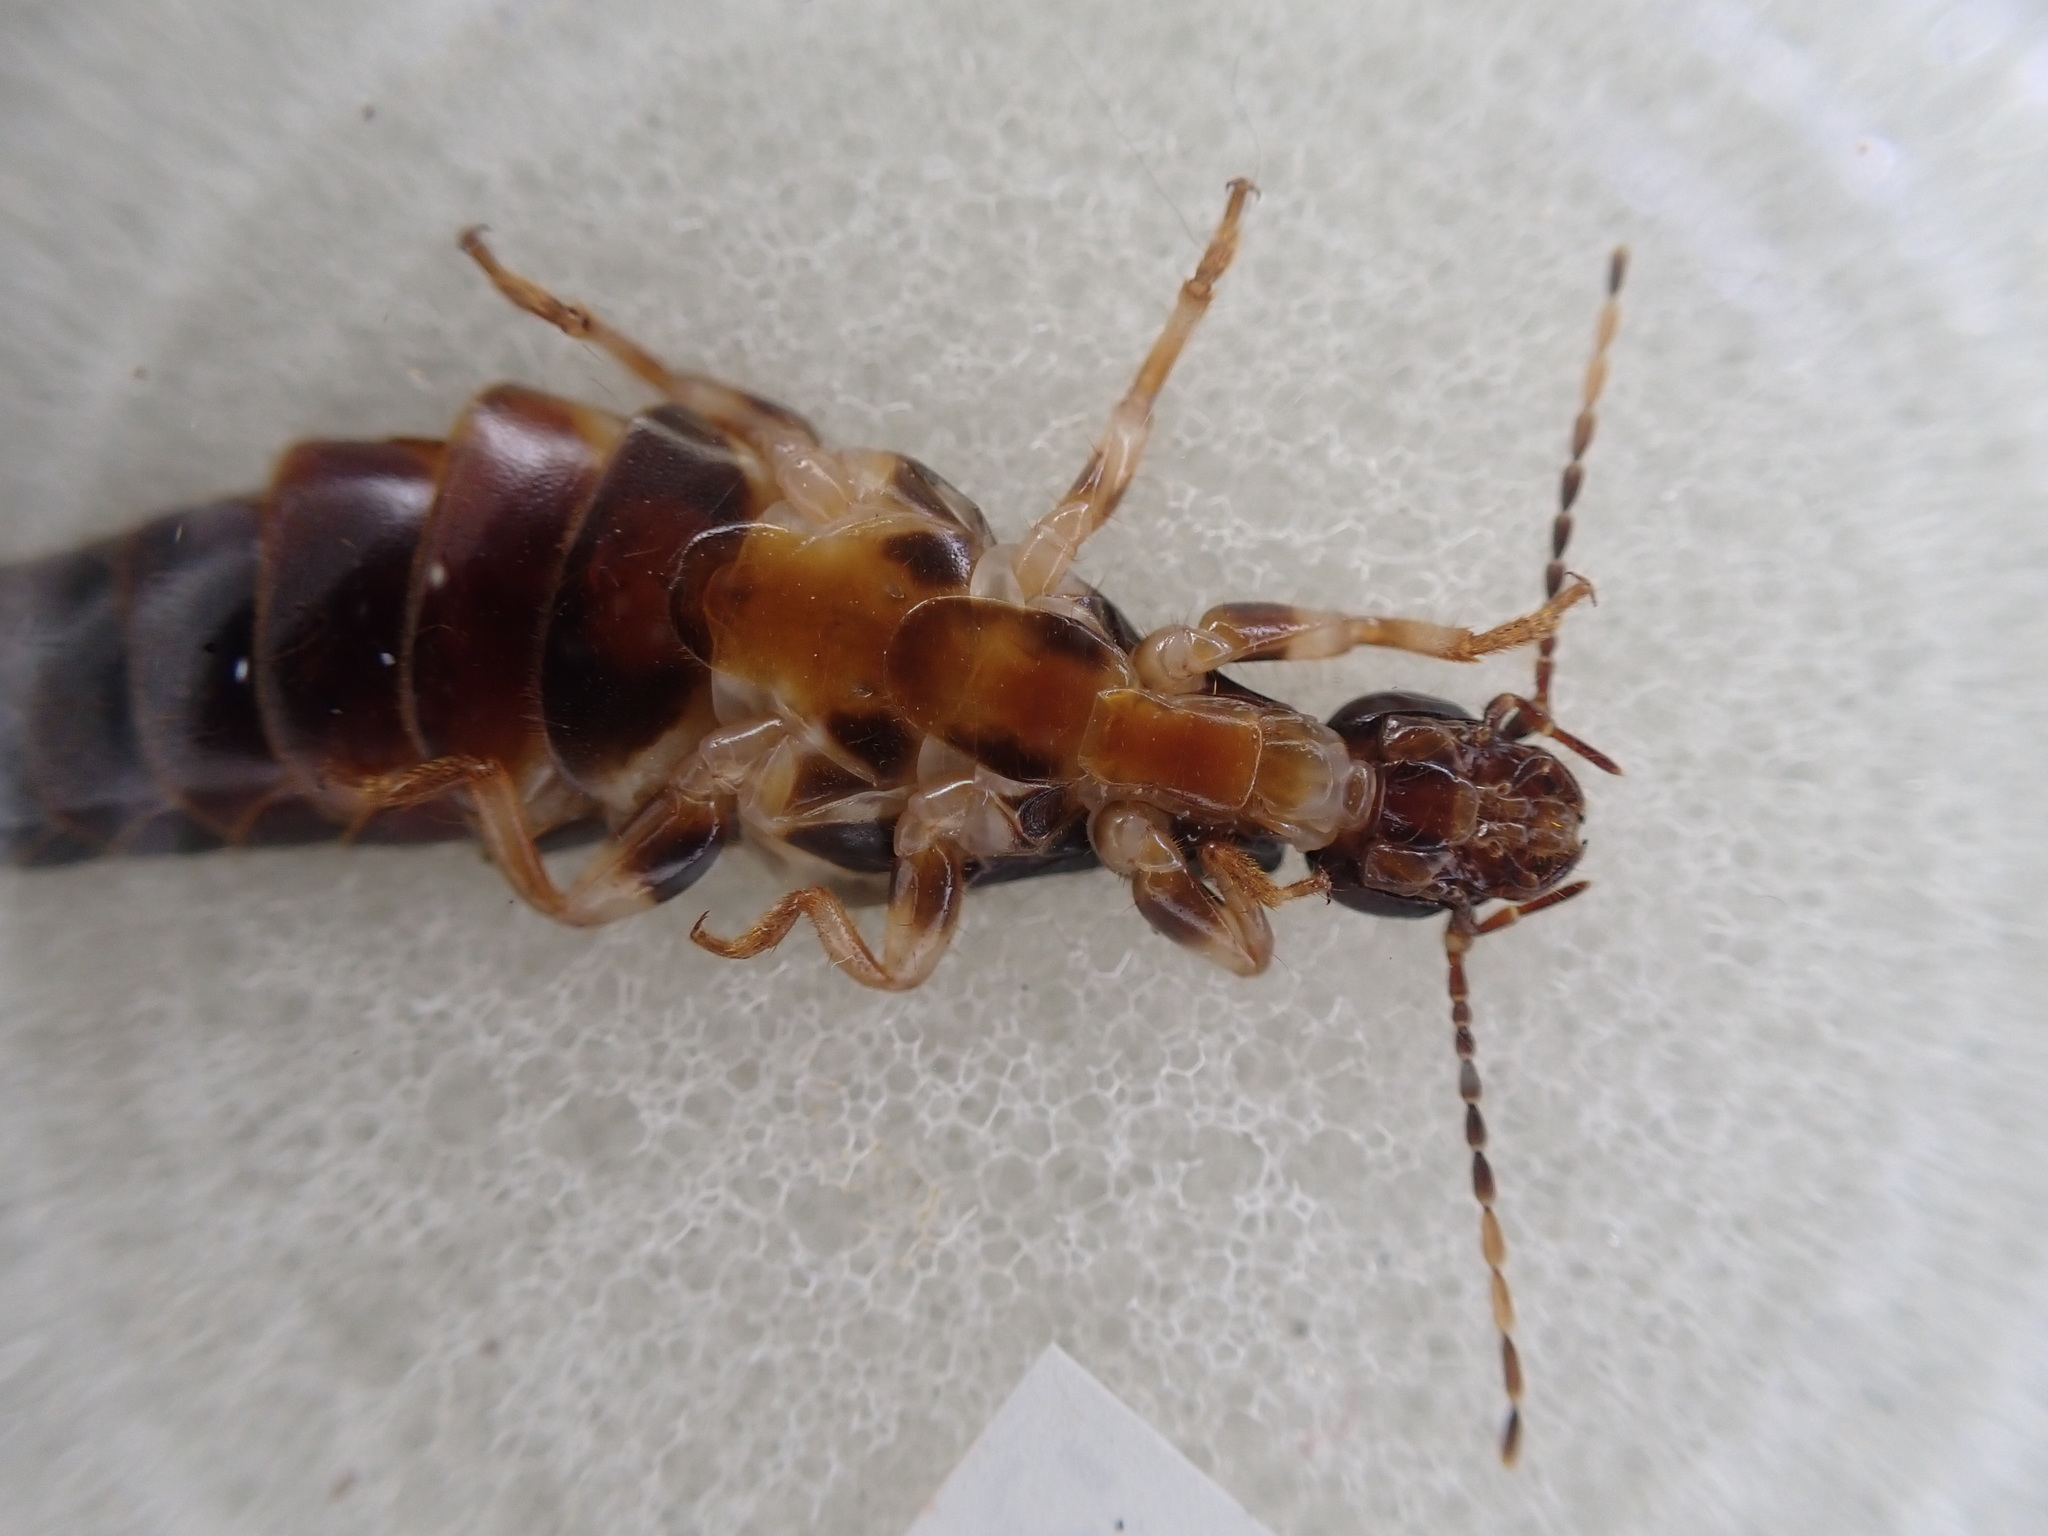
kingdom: Animalia
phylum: Arthropoda
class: Insecta
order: Dermaptera
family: Anisolabididae
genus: Titanolabis
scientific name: Titanolabis colossea
